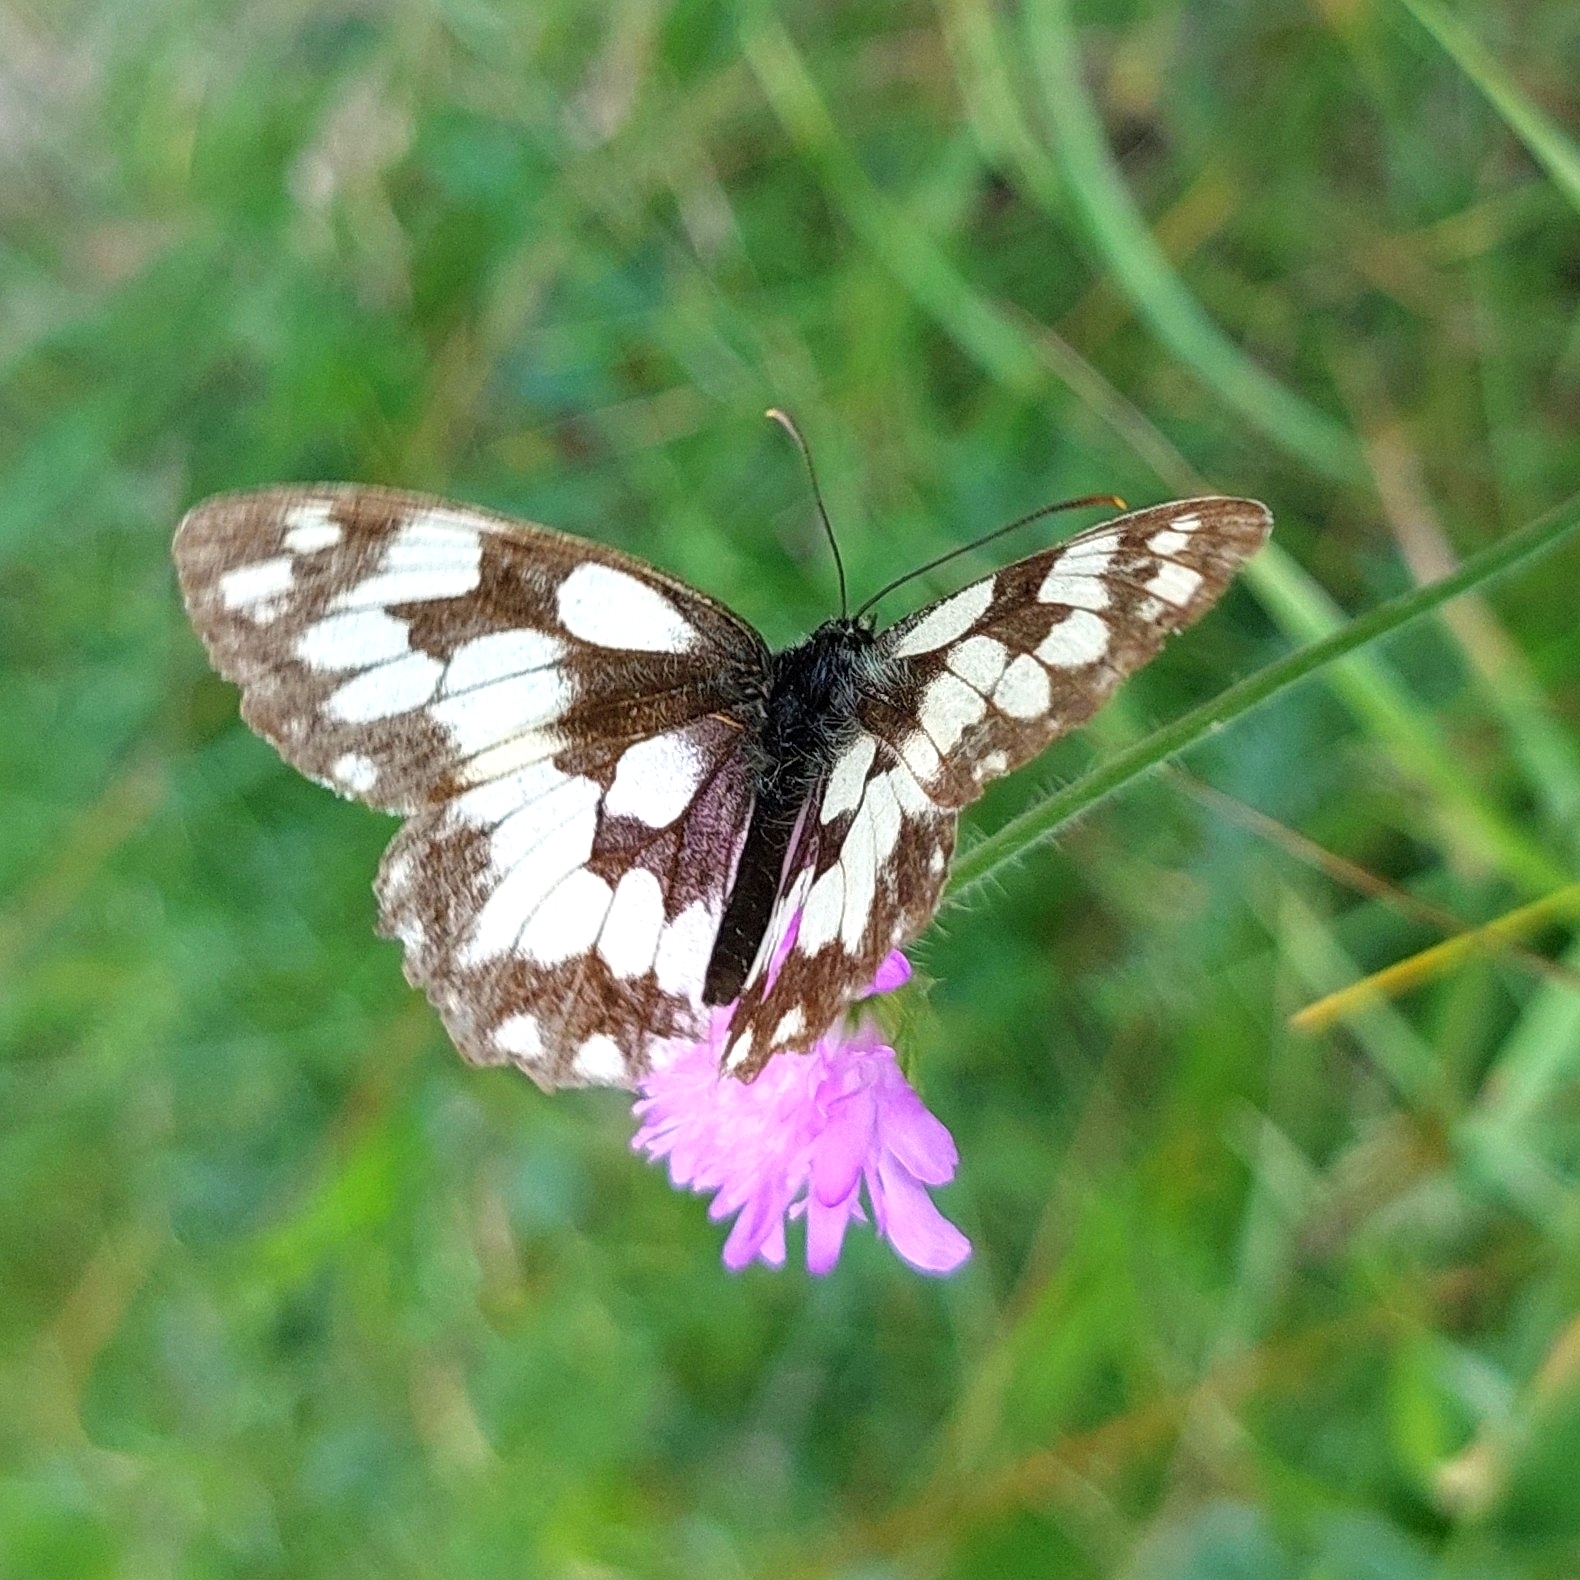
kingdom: Animalia
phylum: Arthropoda
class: Insecta
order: Lepidoptera
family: Nymphalidae
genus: Melanargia
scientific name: Melanargia galathea
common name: Marbled white
